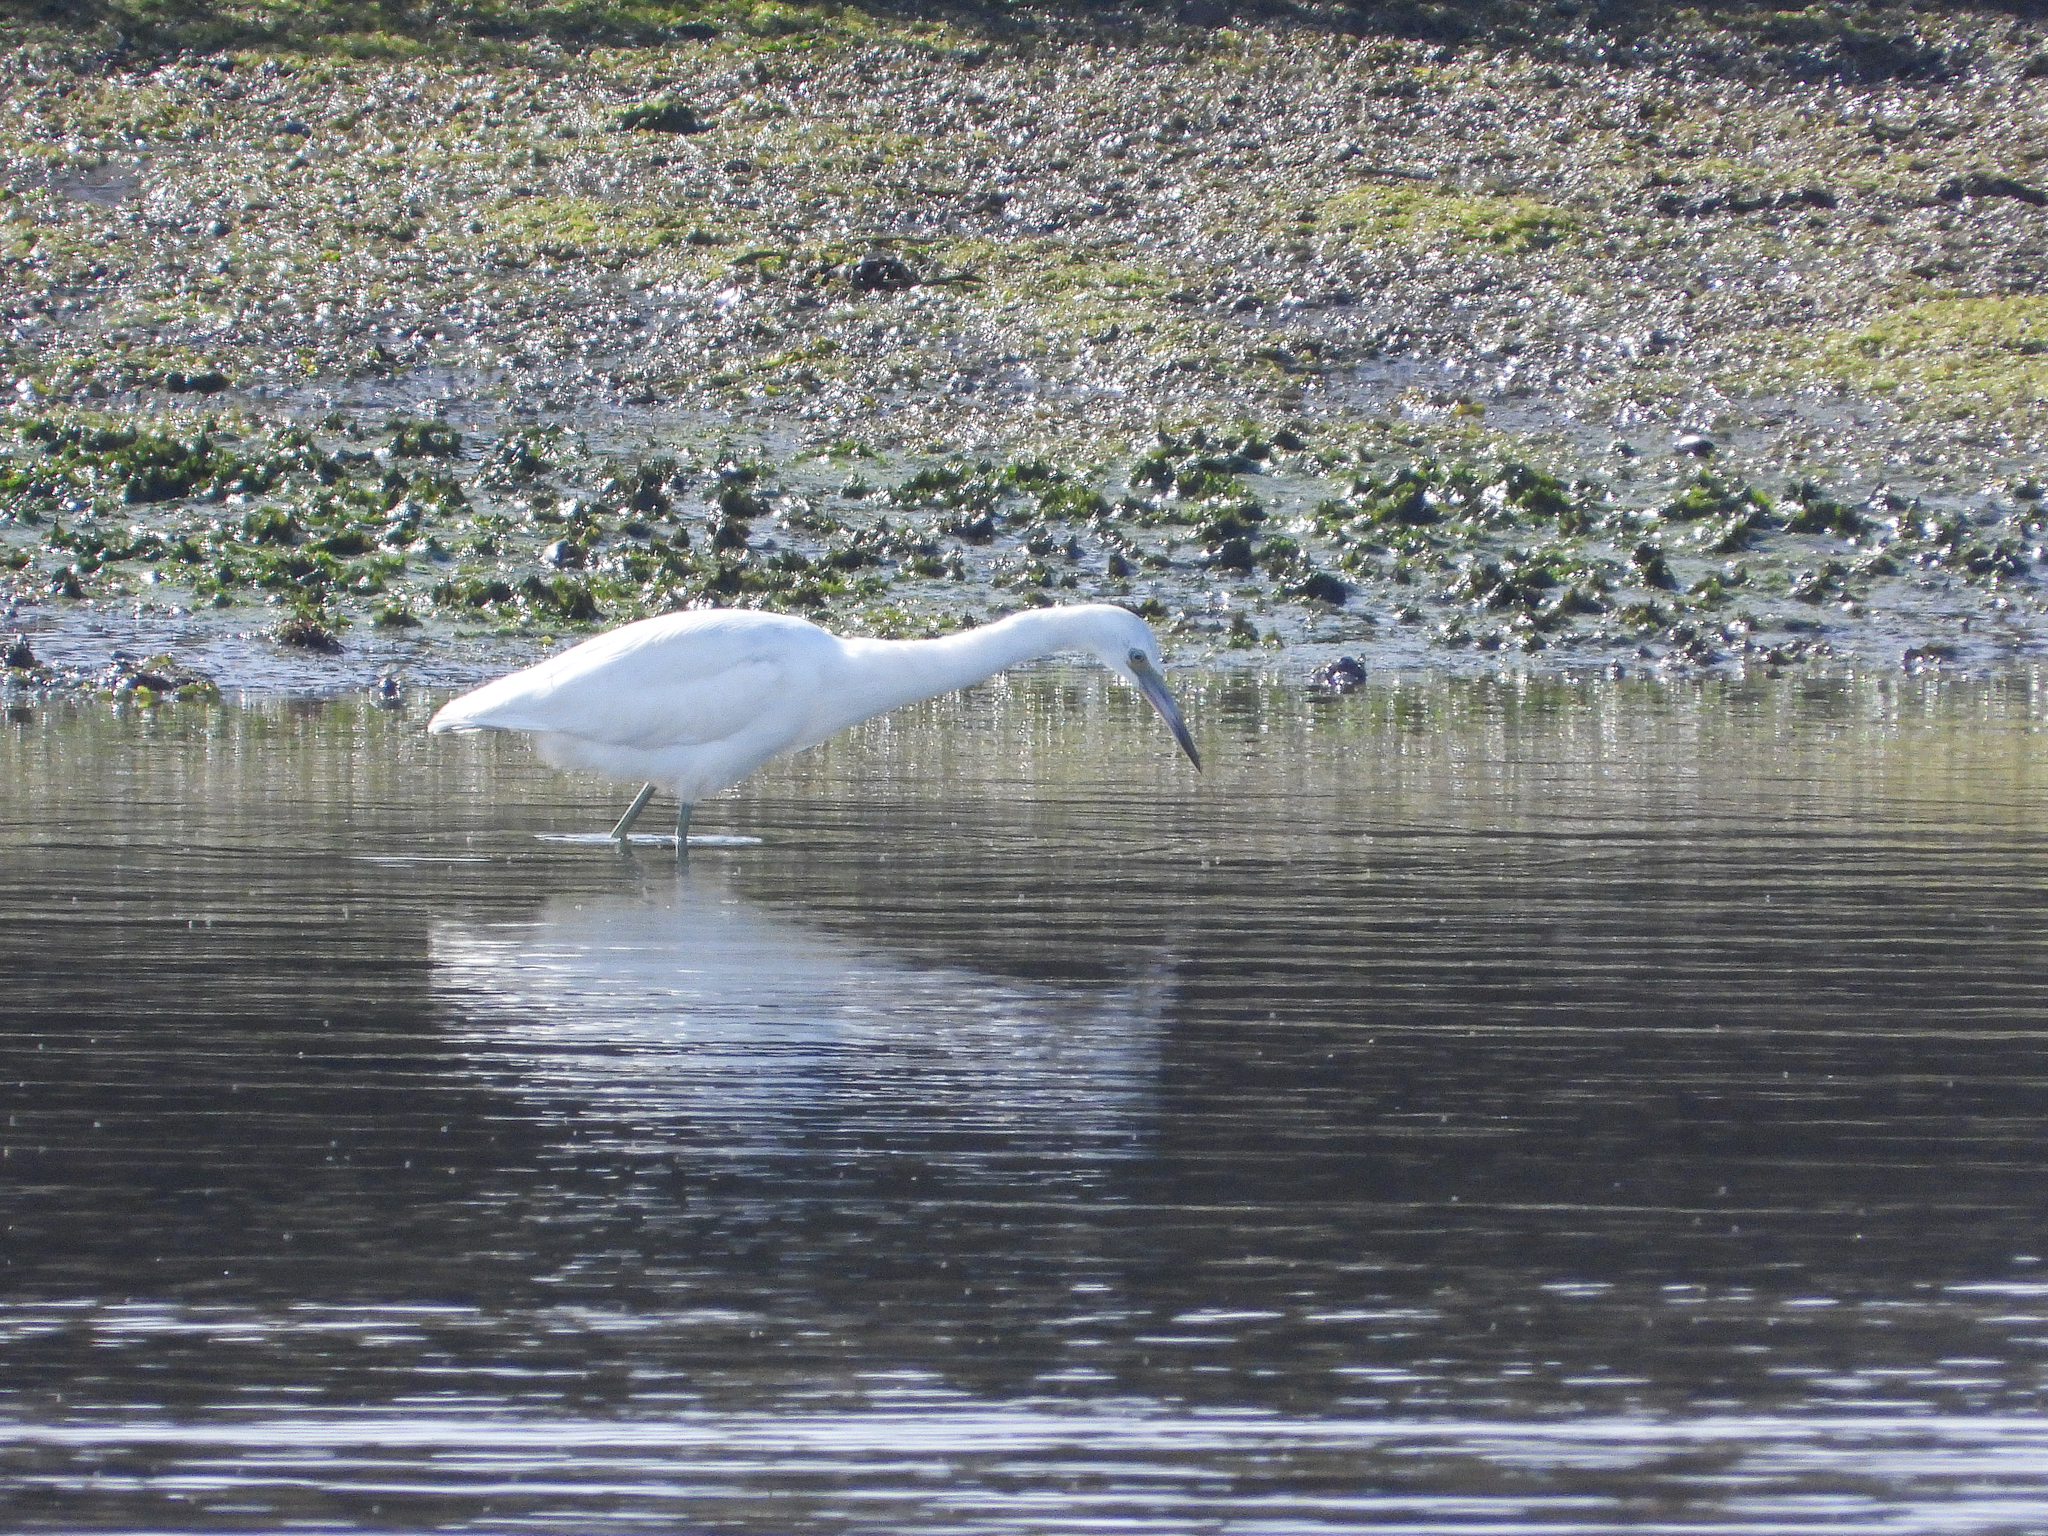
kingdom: Animalia
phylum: Chordata
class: Aves
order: Pelecaniformes
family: Ardeidae
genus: Egretta
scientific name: Egretta caerulea
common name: Little blue heron
